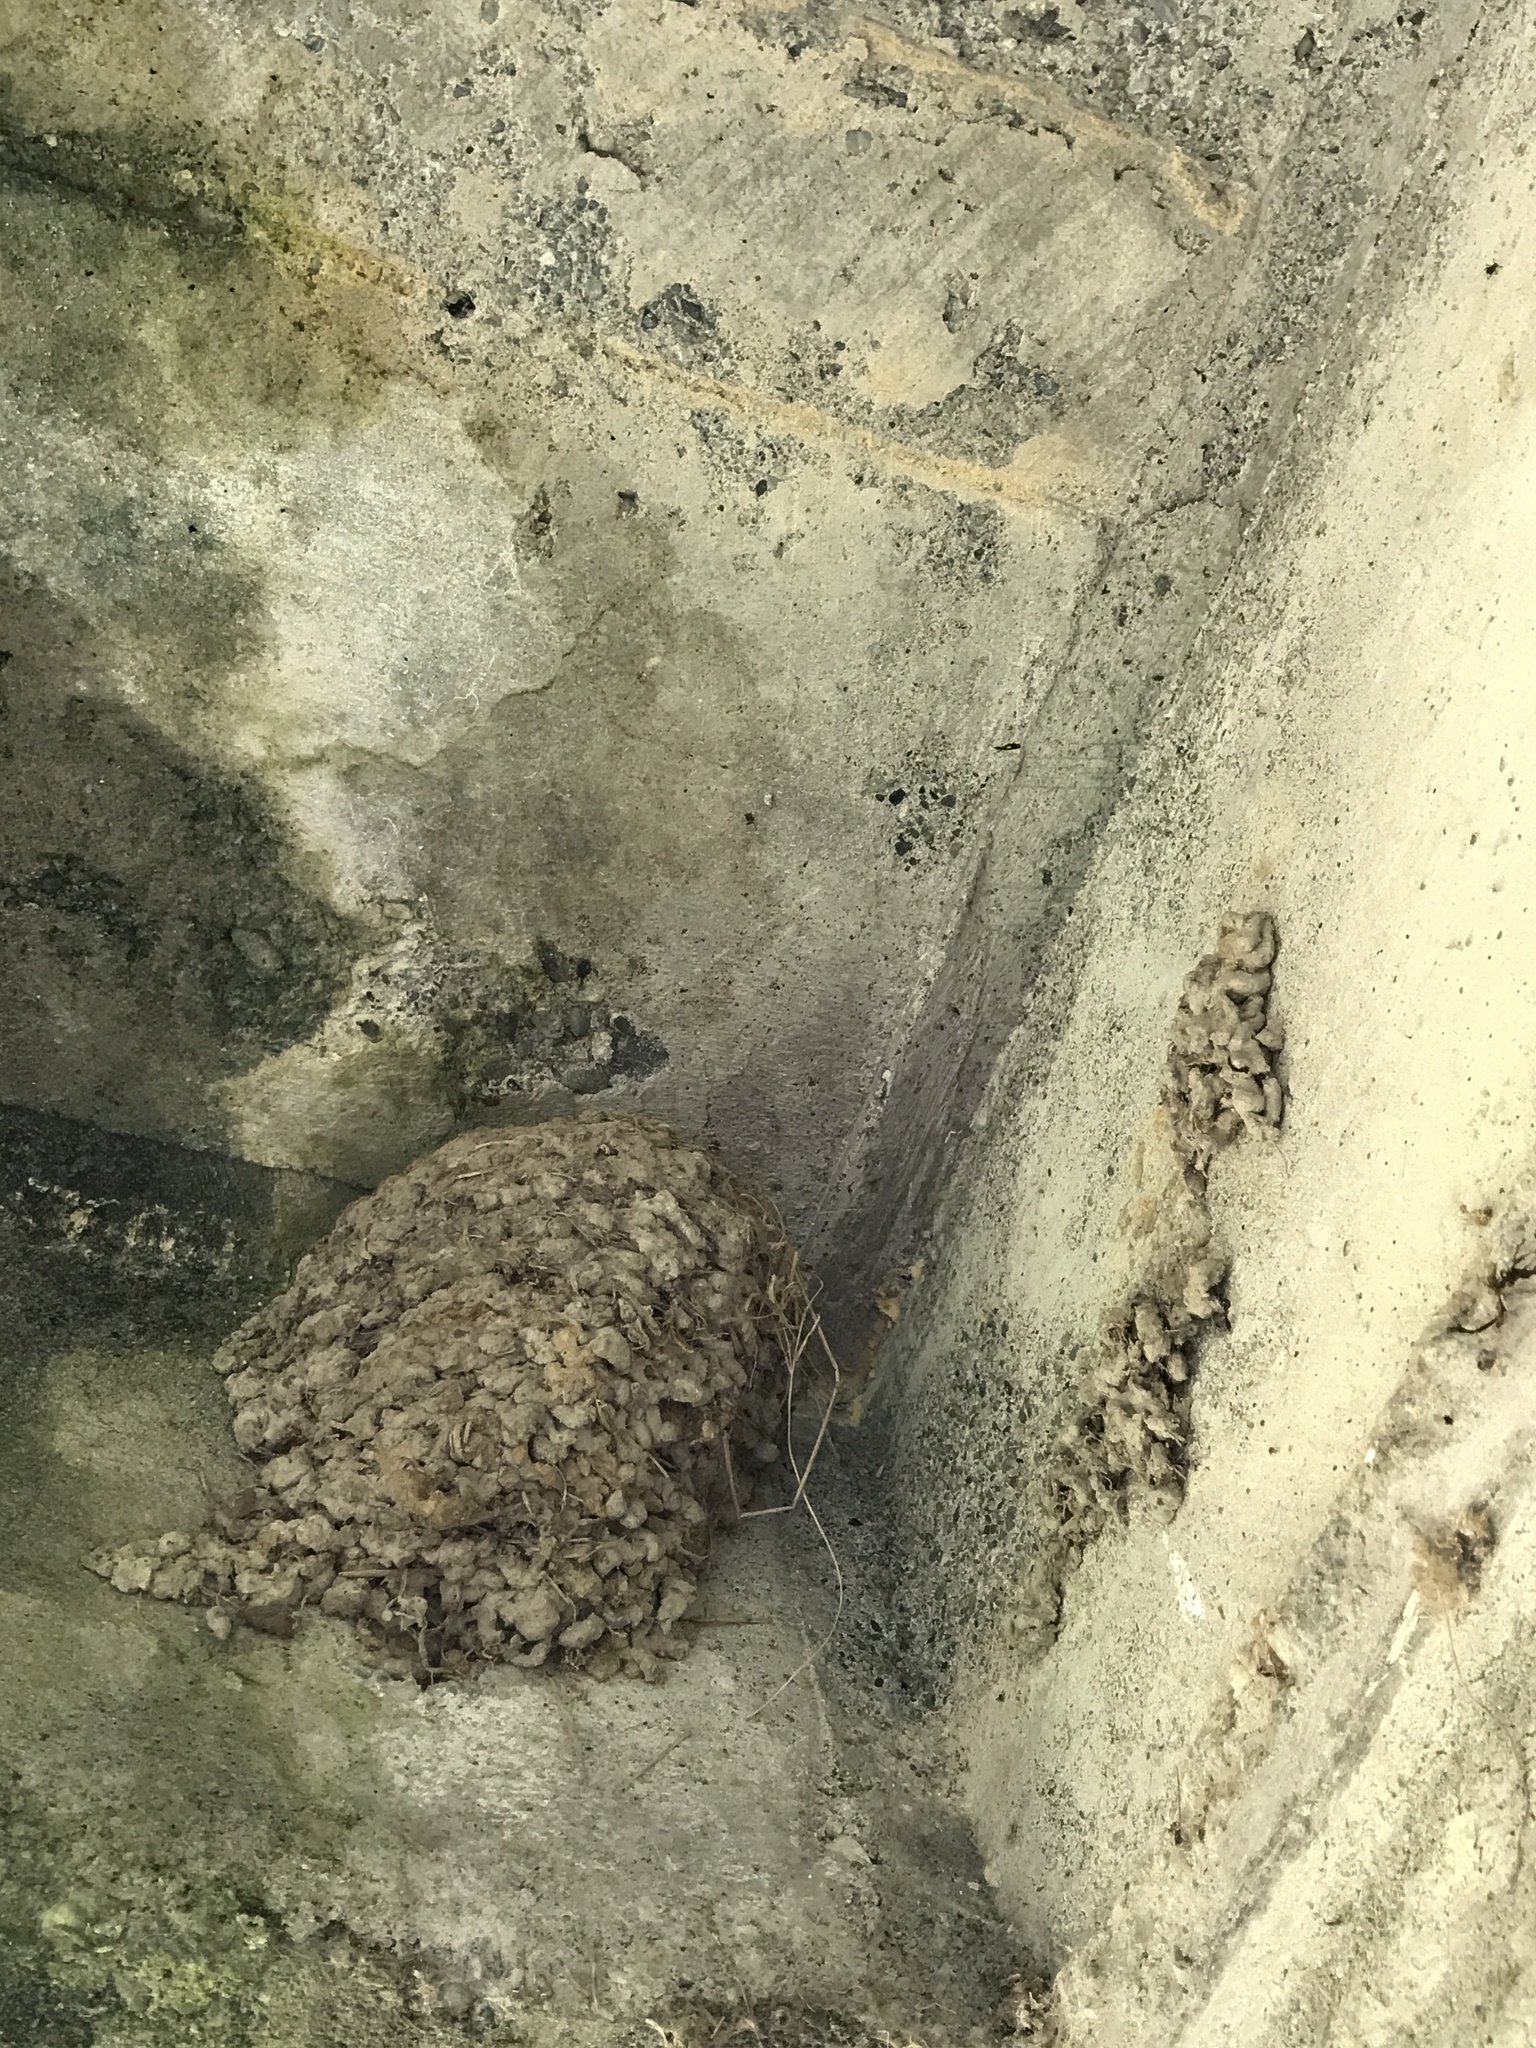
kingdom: Animalia
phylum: Chordata
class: Aves
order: Passeriformes
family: Hirundinidae
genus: Hirundo
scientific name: Hirundo neoxena
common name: Welcome swallow
